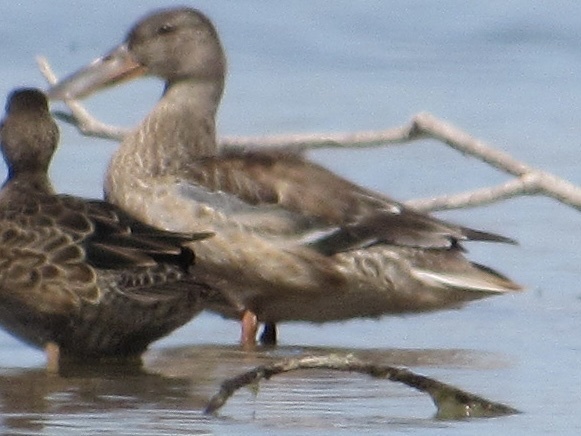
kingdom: Animalia
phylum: Chordata
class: Aves
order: Anseriformes
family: Anatidae
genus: Spatula
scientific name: Spatula clypeata
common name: Northern shoveler
